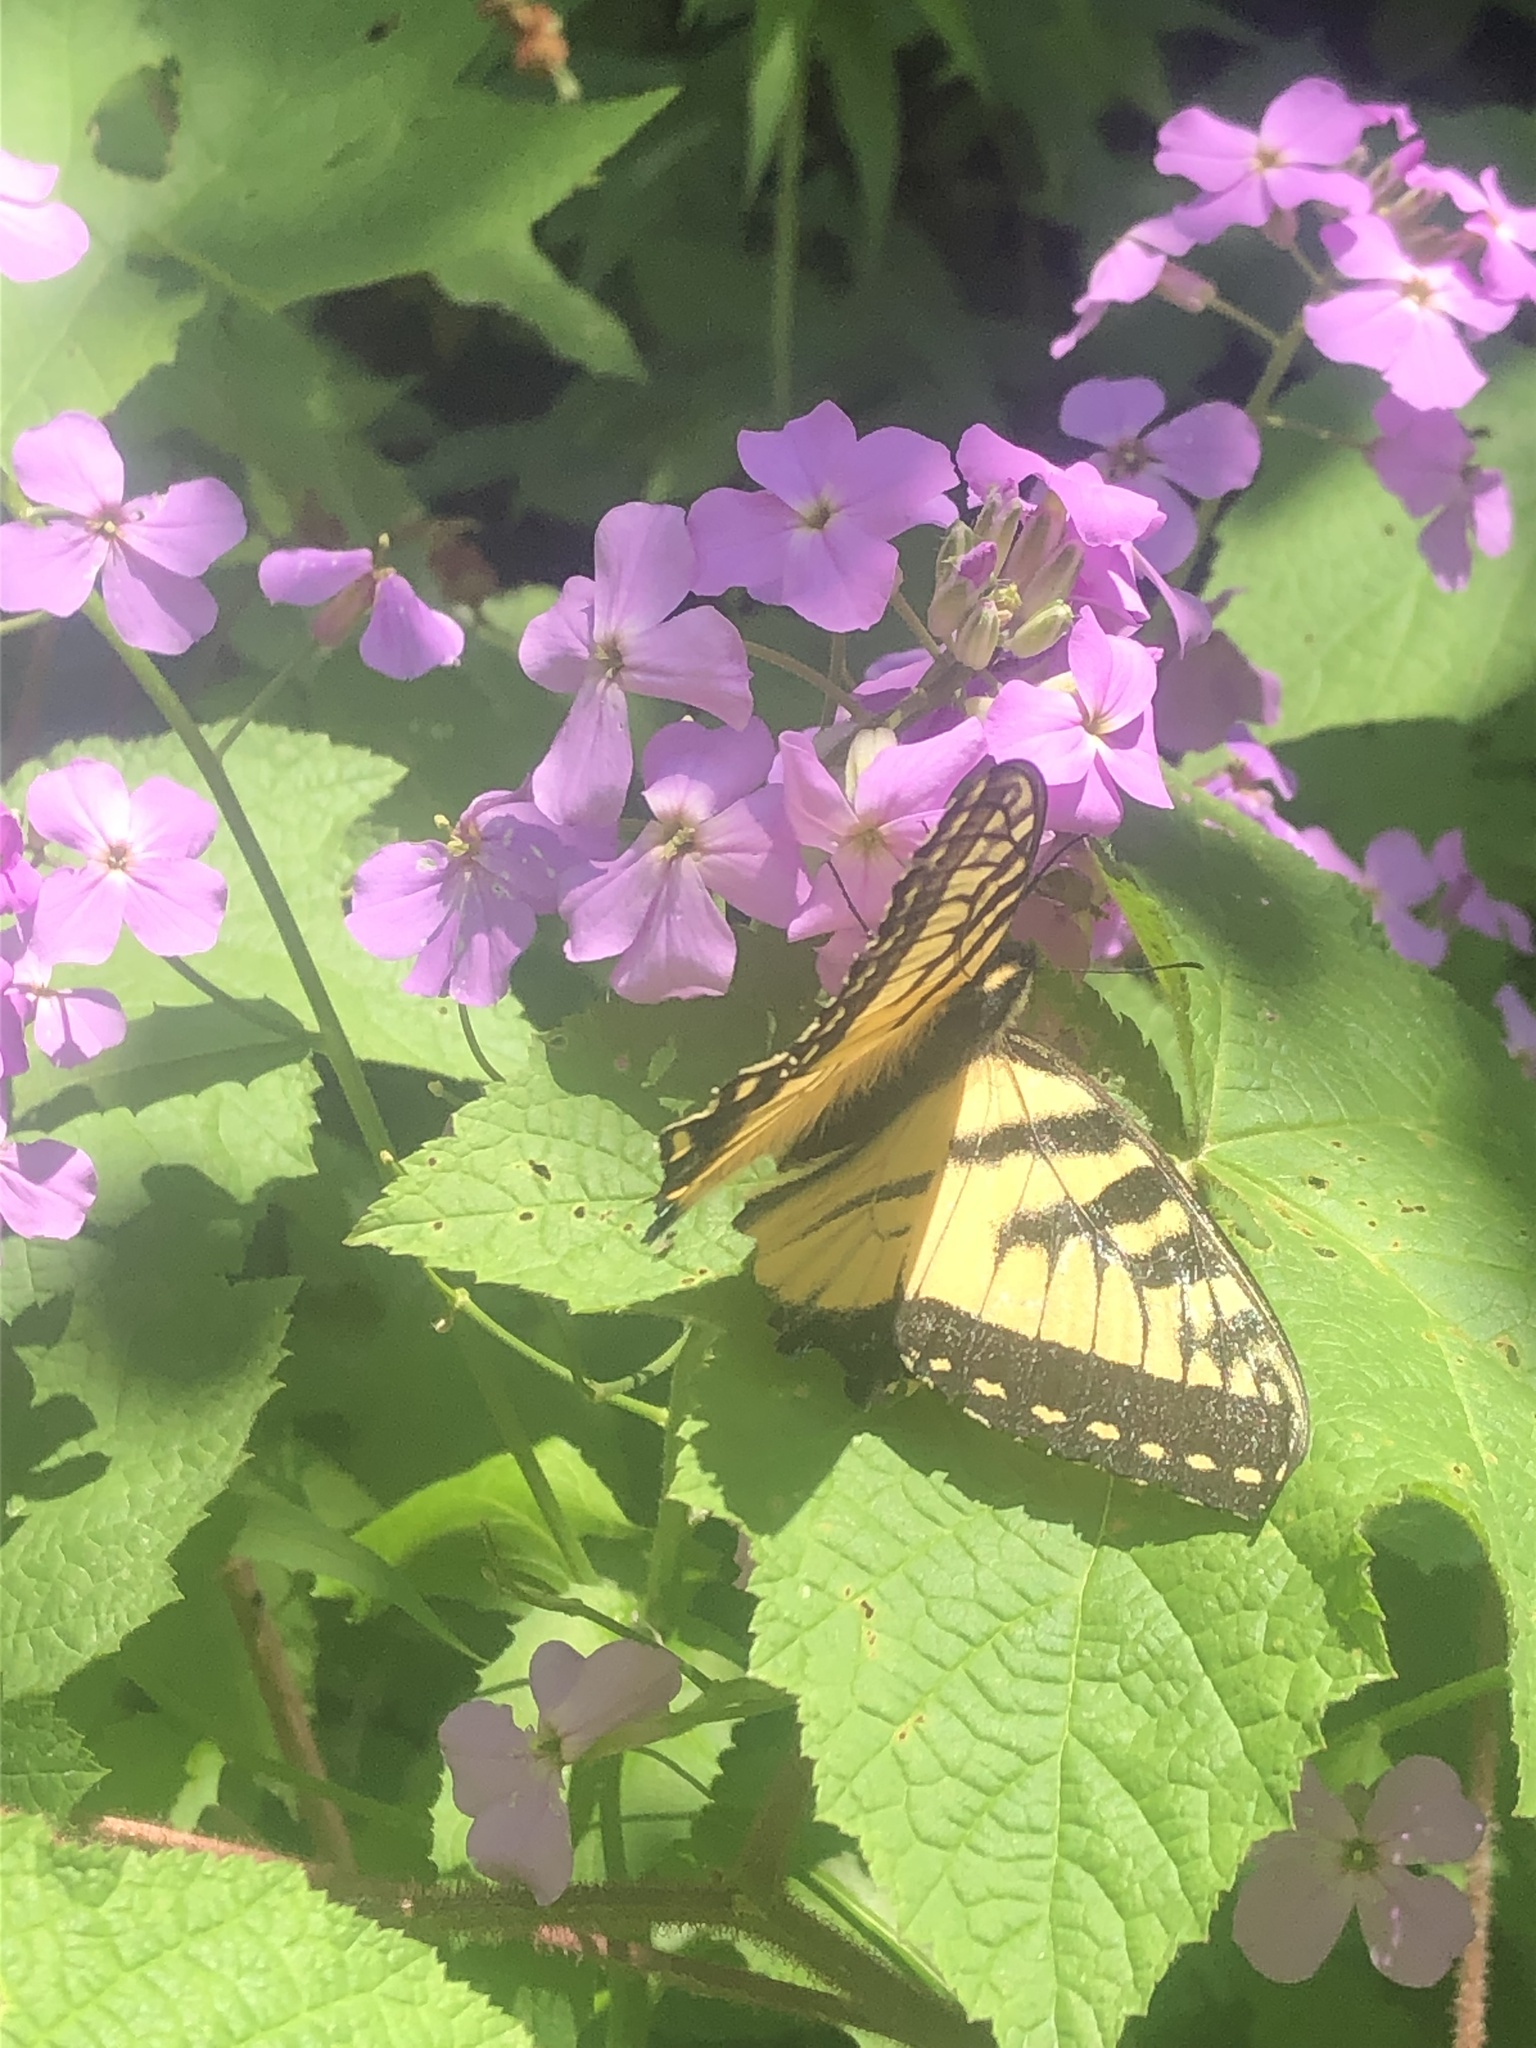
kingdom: Animalia
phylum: Arthropoda
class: Insecta
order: Lepidoptera
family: Papilionidae
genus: Papilio
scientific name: Papilio canadensis
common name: Canadian tiger swallowtail
